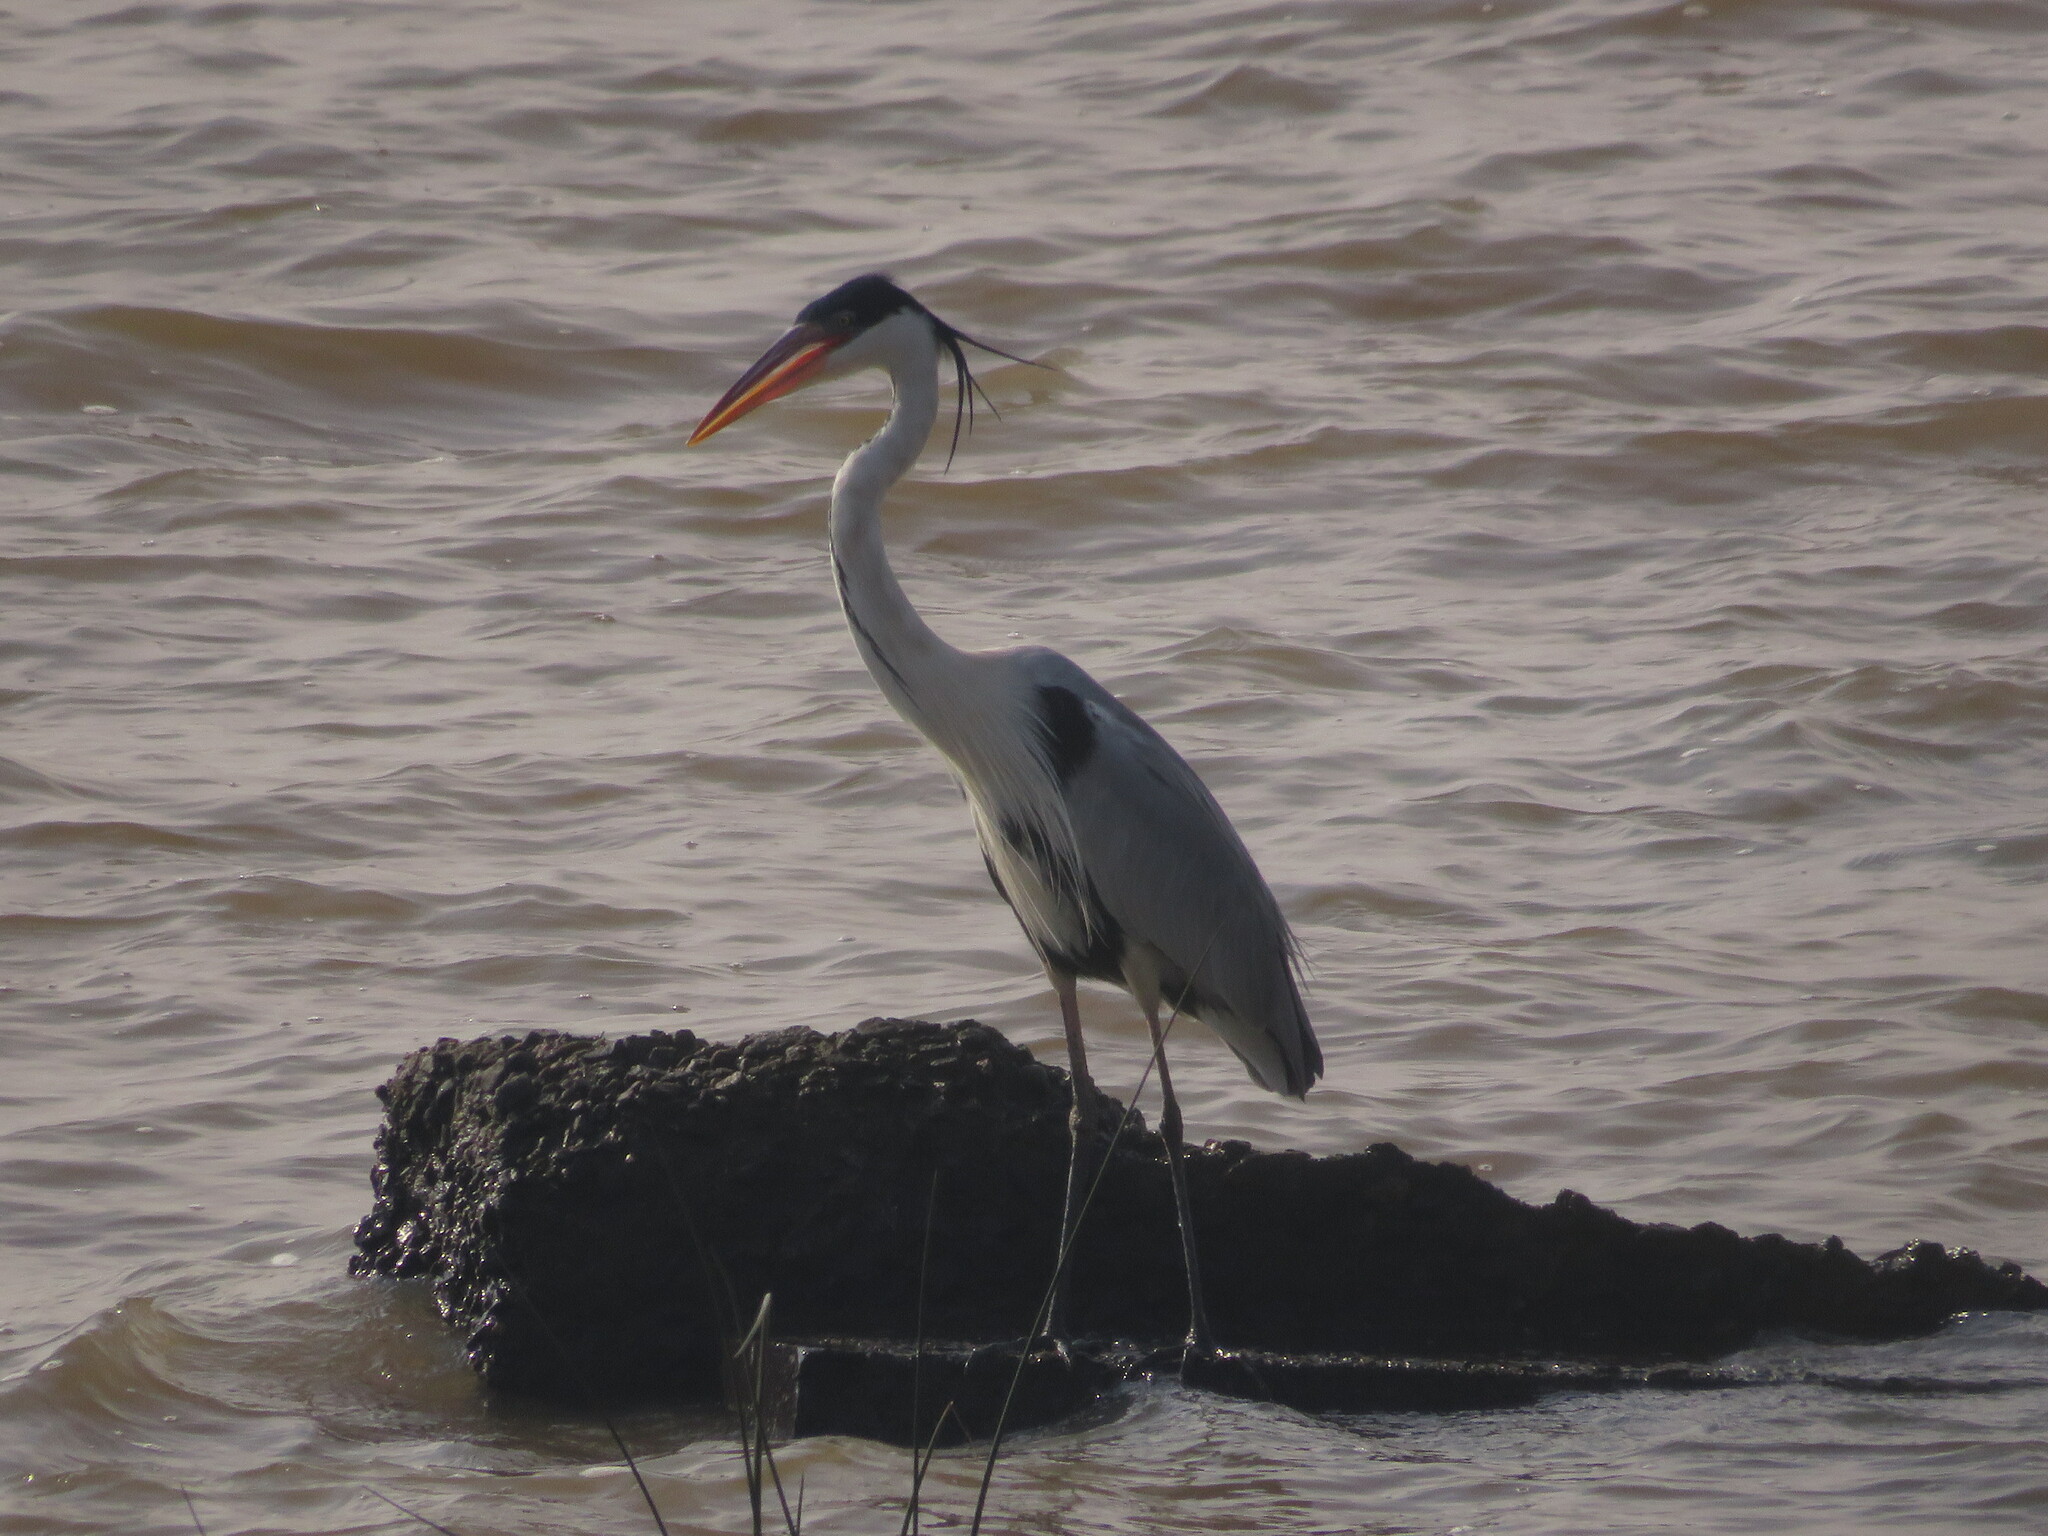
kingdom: Animalia
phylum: Chordata
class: Aves
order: Pelecaniformes
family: Ardeidae
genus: Ardea
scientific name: Ardea cocoi
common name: Cocoi heron
